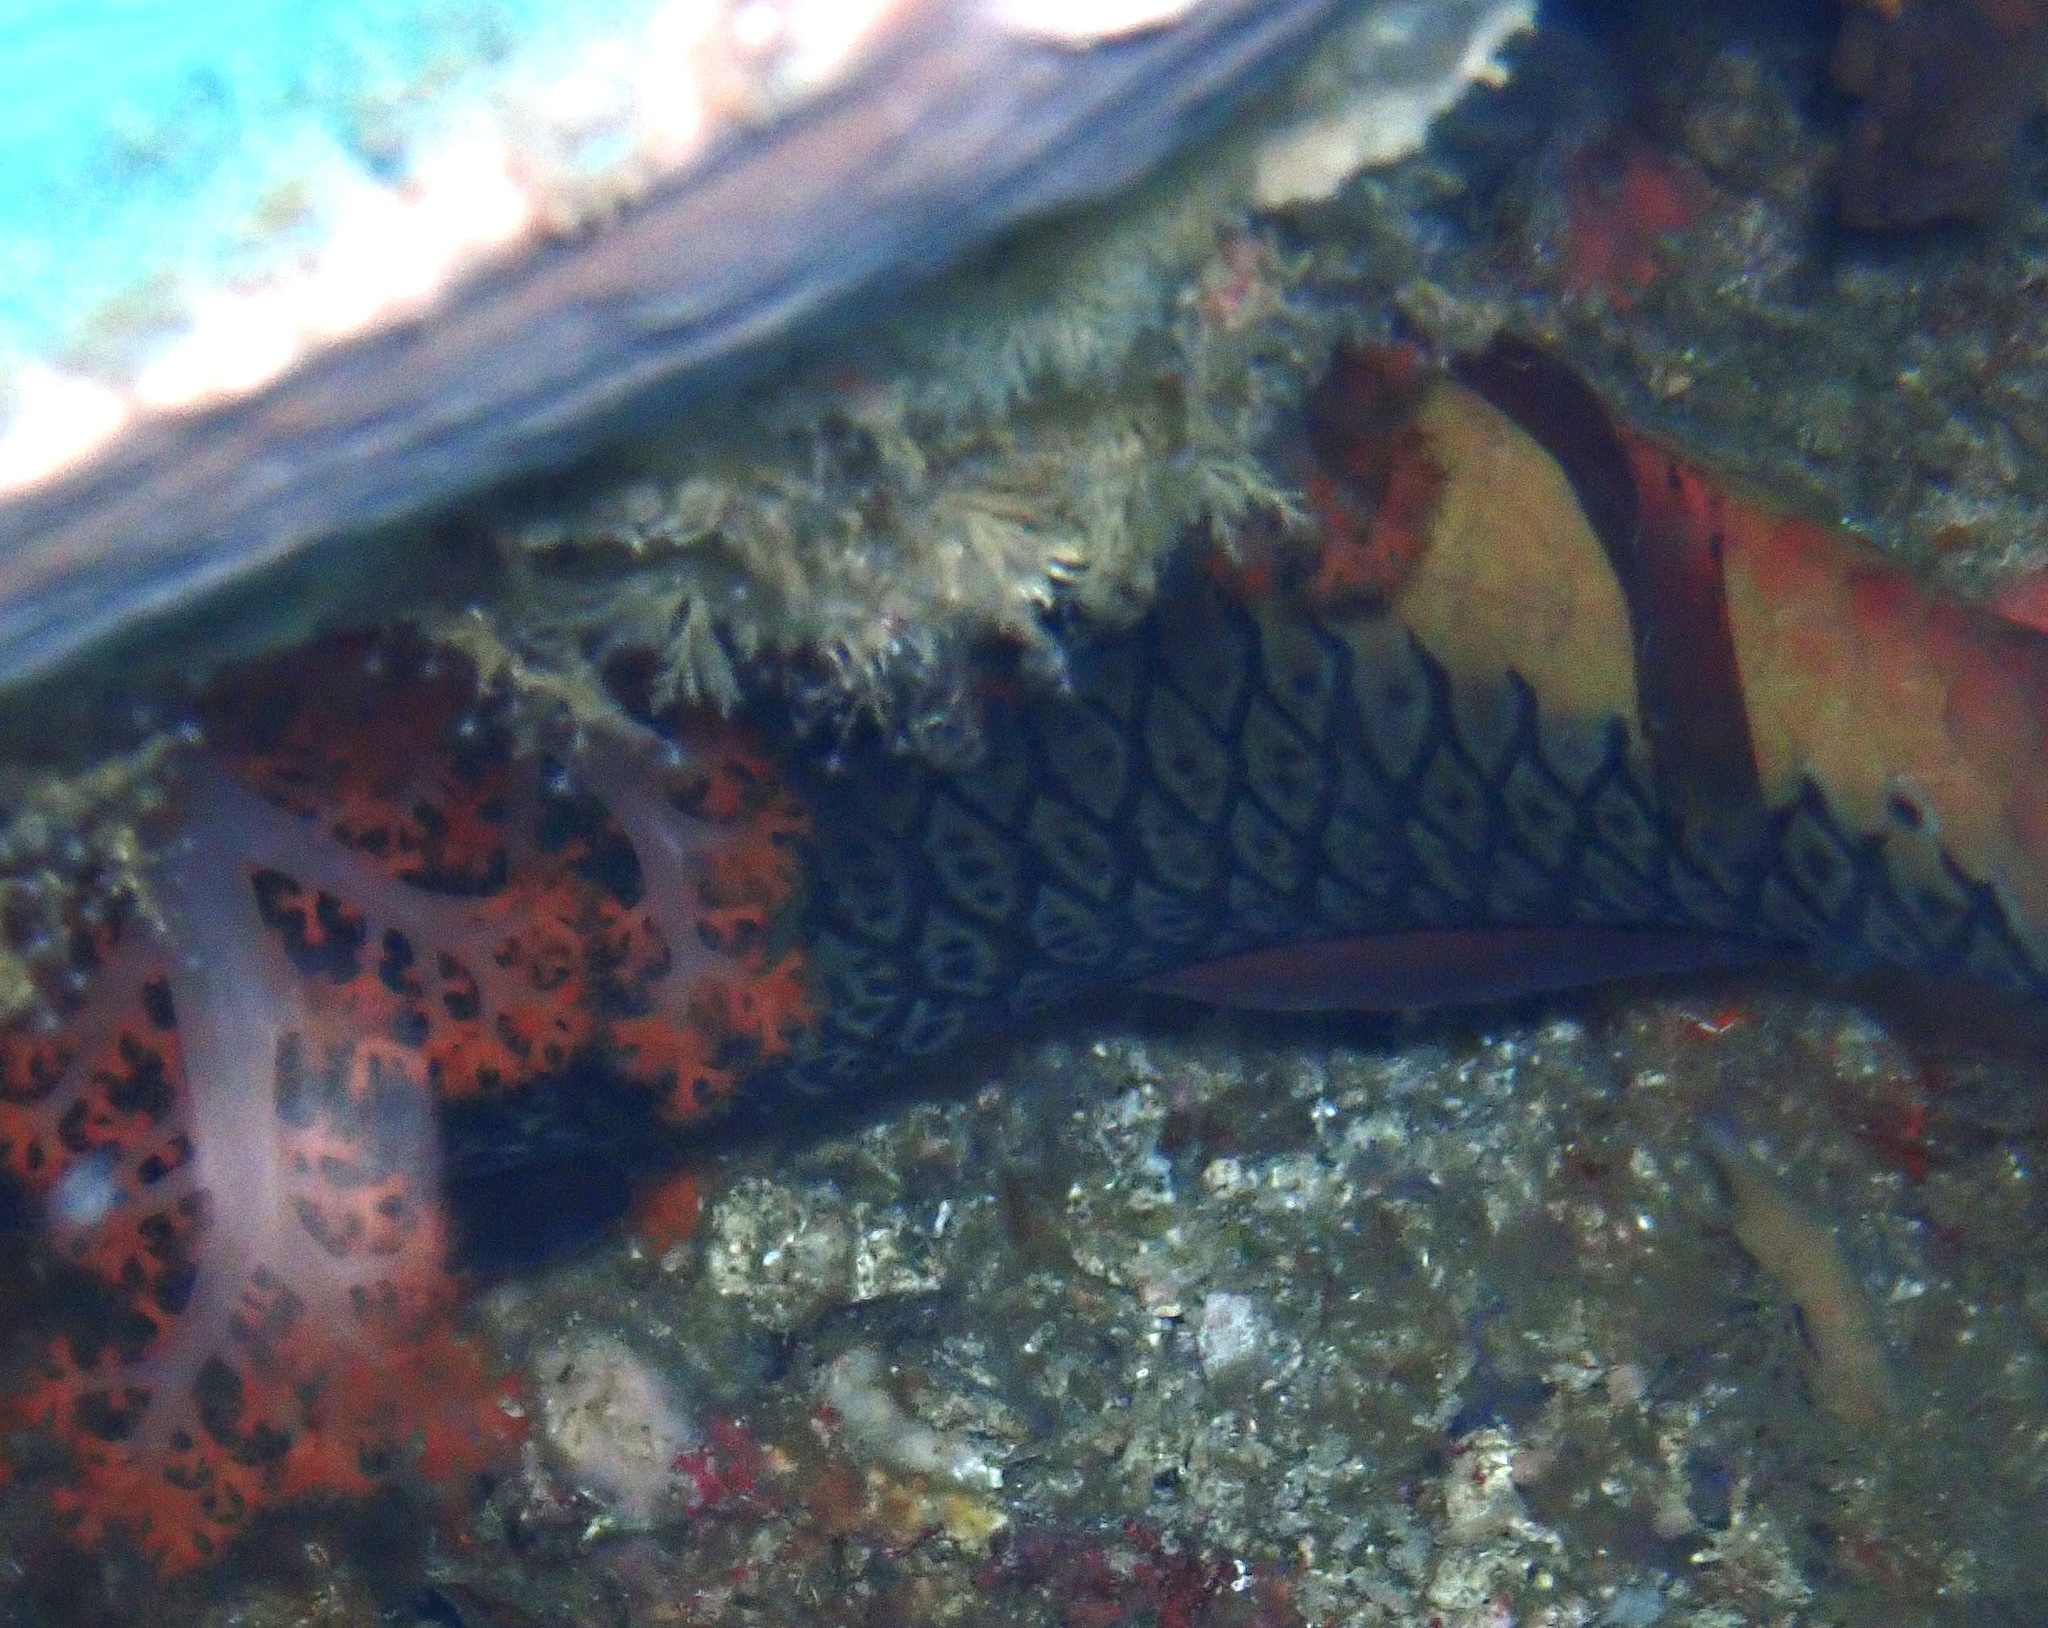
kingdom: Animalia
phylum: Chordata
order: Perciformes
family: Scaridae
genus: Cetoscarus
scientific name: Cetoscarus ocellatus
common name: Bicolor parrotfish
